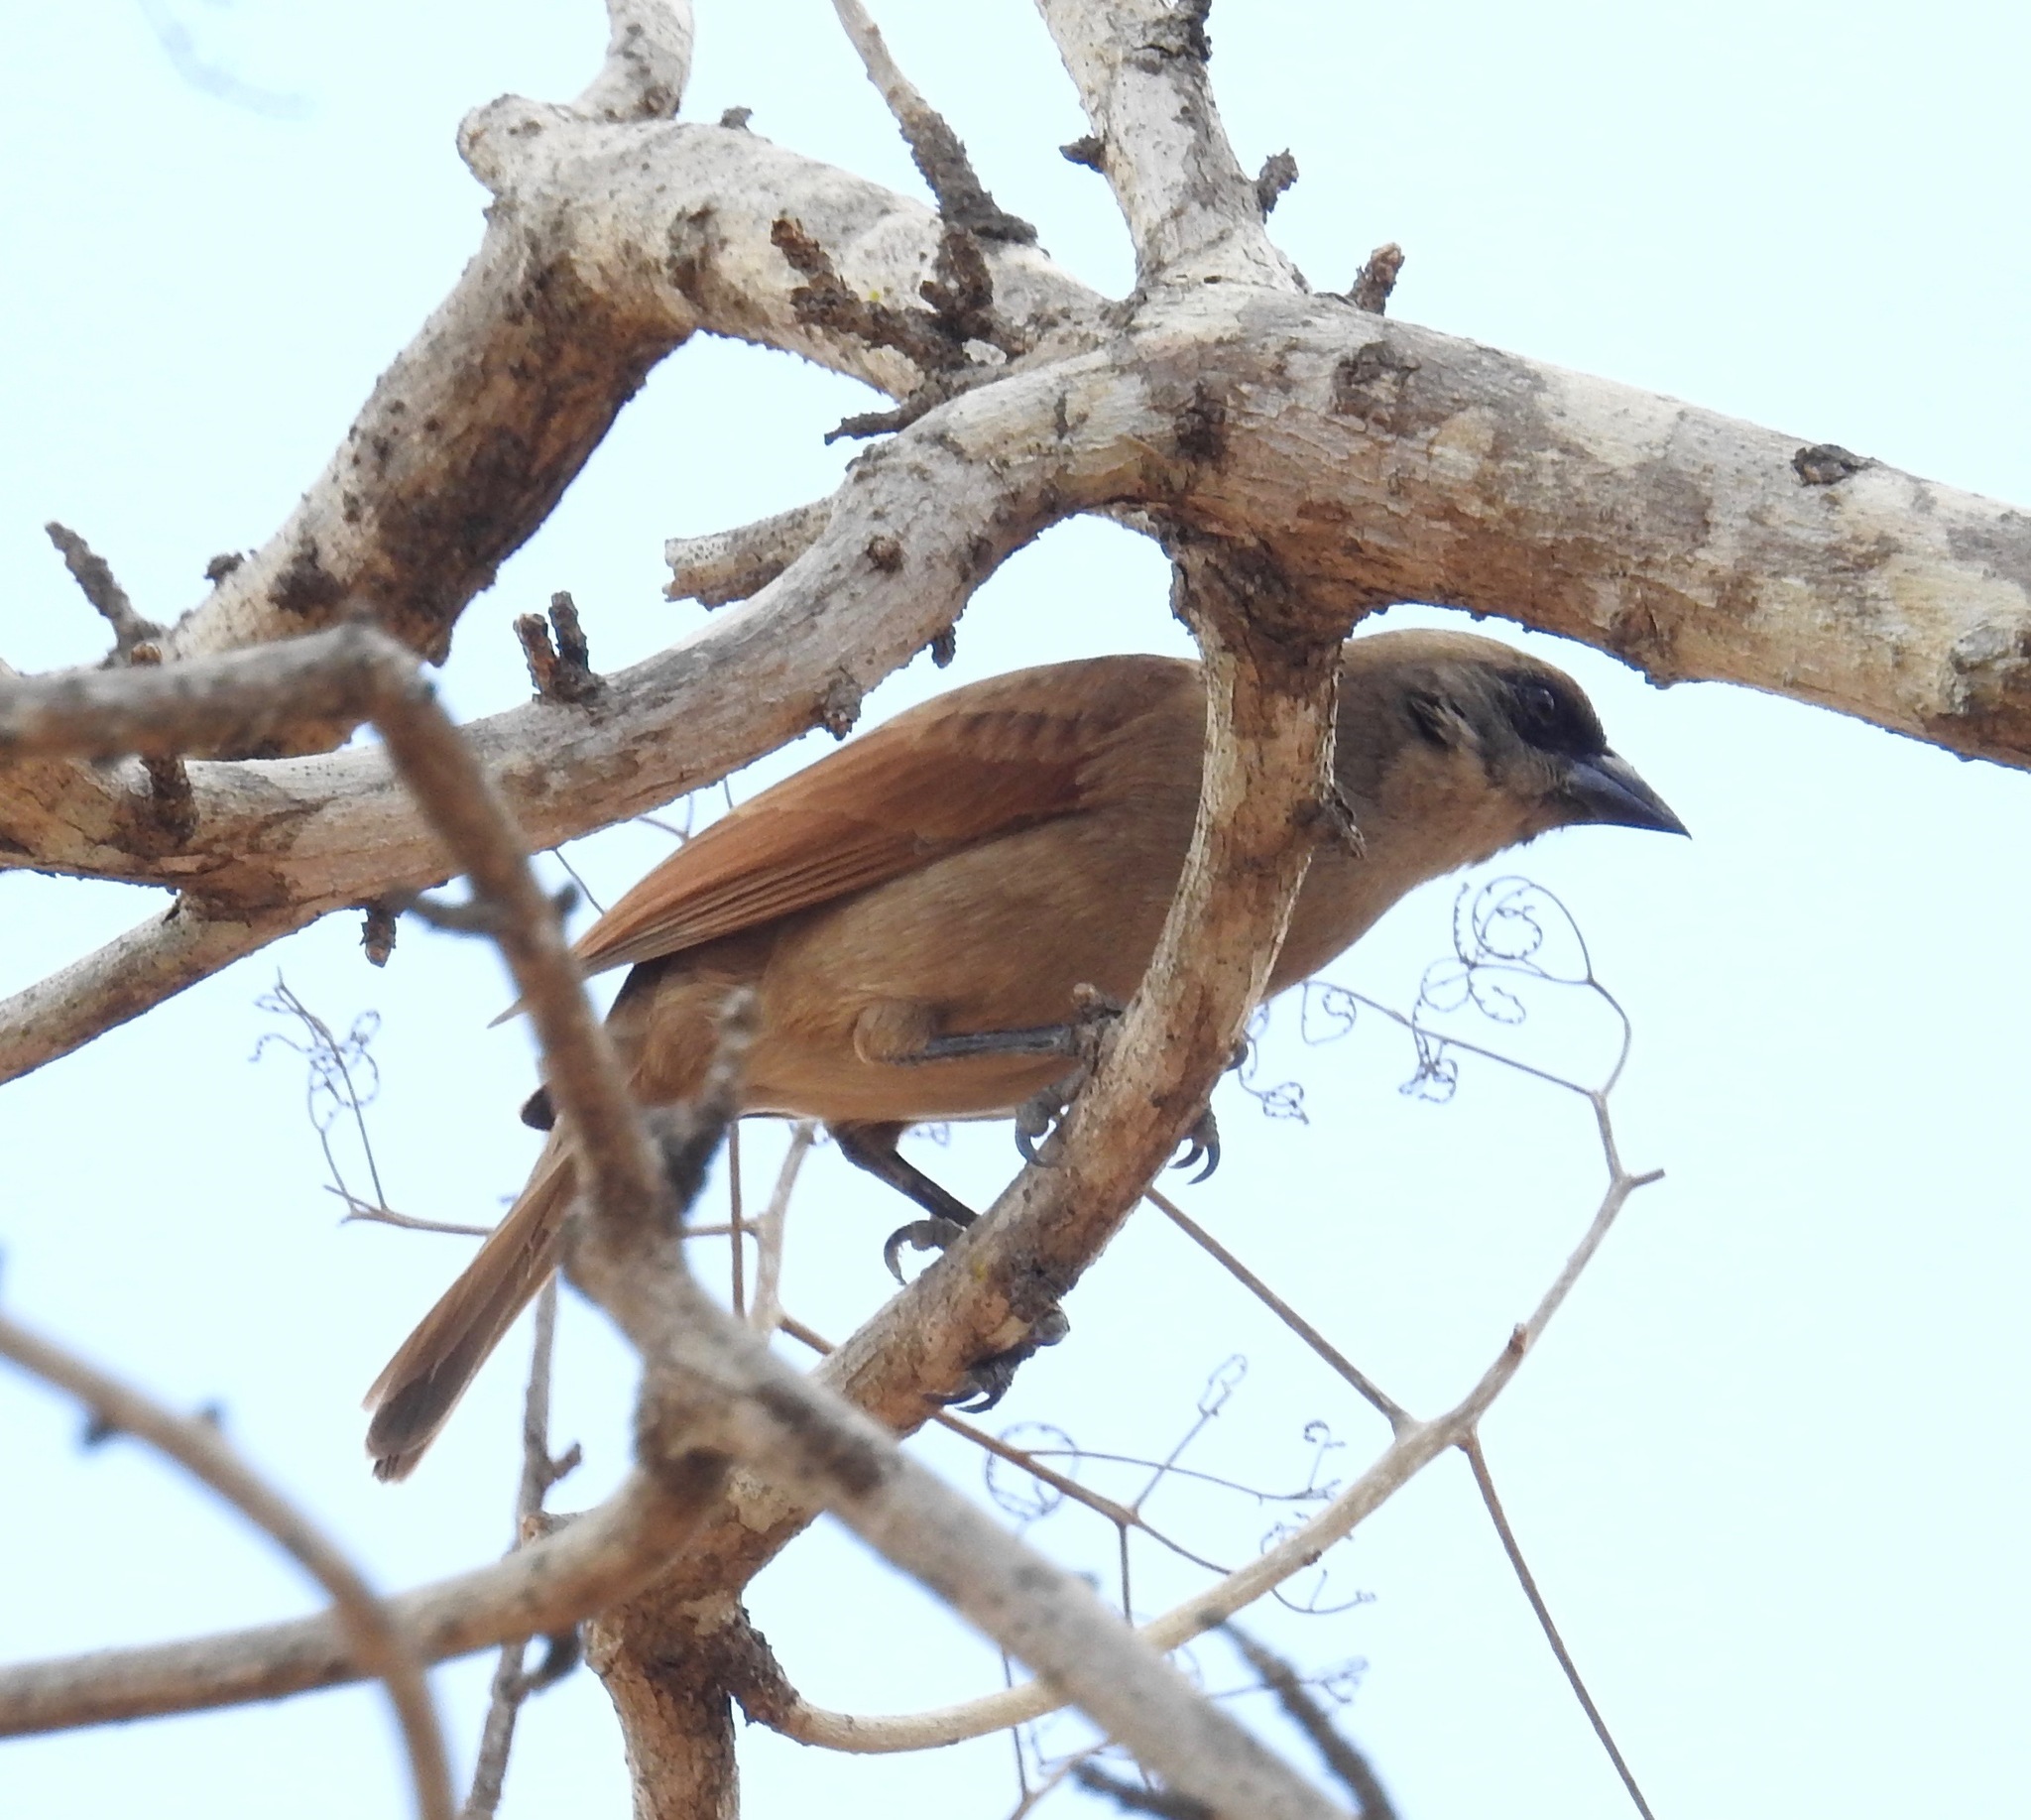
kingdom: Animalia
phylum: Chordata
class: Aves
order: Passeriformes
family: Icteridae
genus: Agelaioides
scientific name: Agelaioides badius
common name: Baywing
